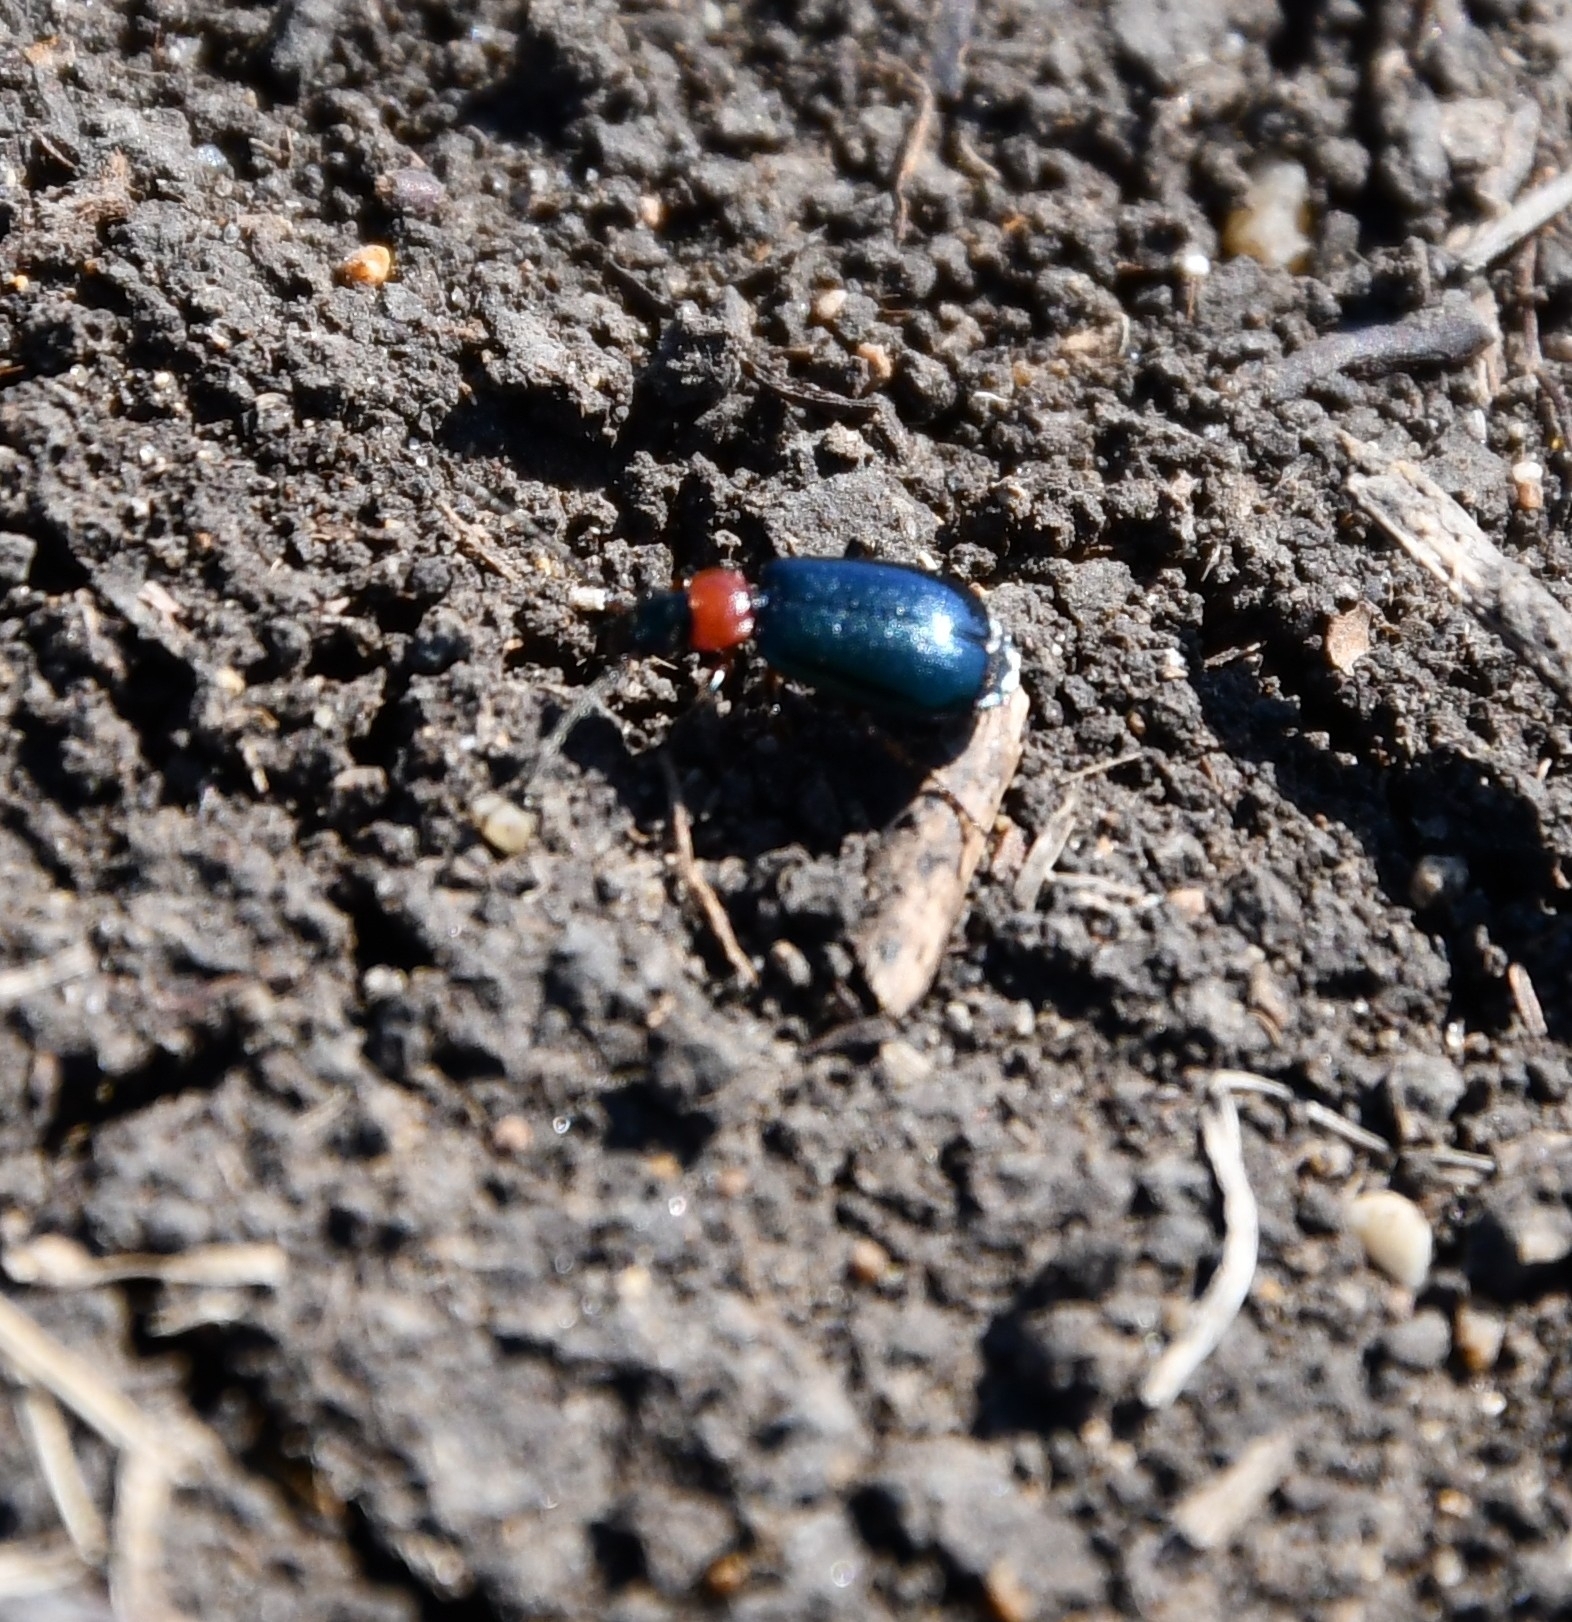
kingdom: Animalia
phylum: Arthropoda
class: Insecta
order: Coleoptera
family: Carabidae
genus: Lebia
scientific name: Lebia cyanocephala
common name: Blue plunderer
